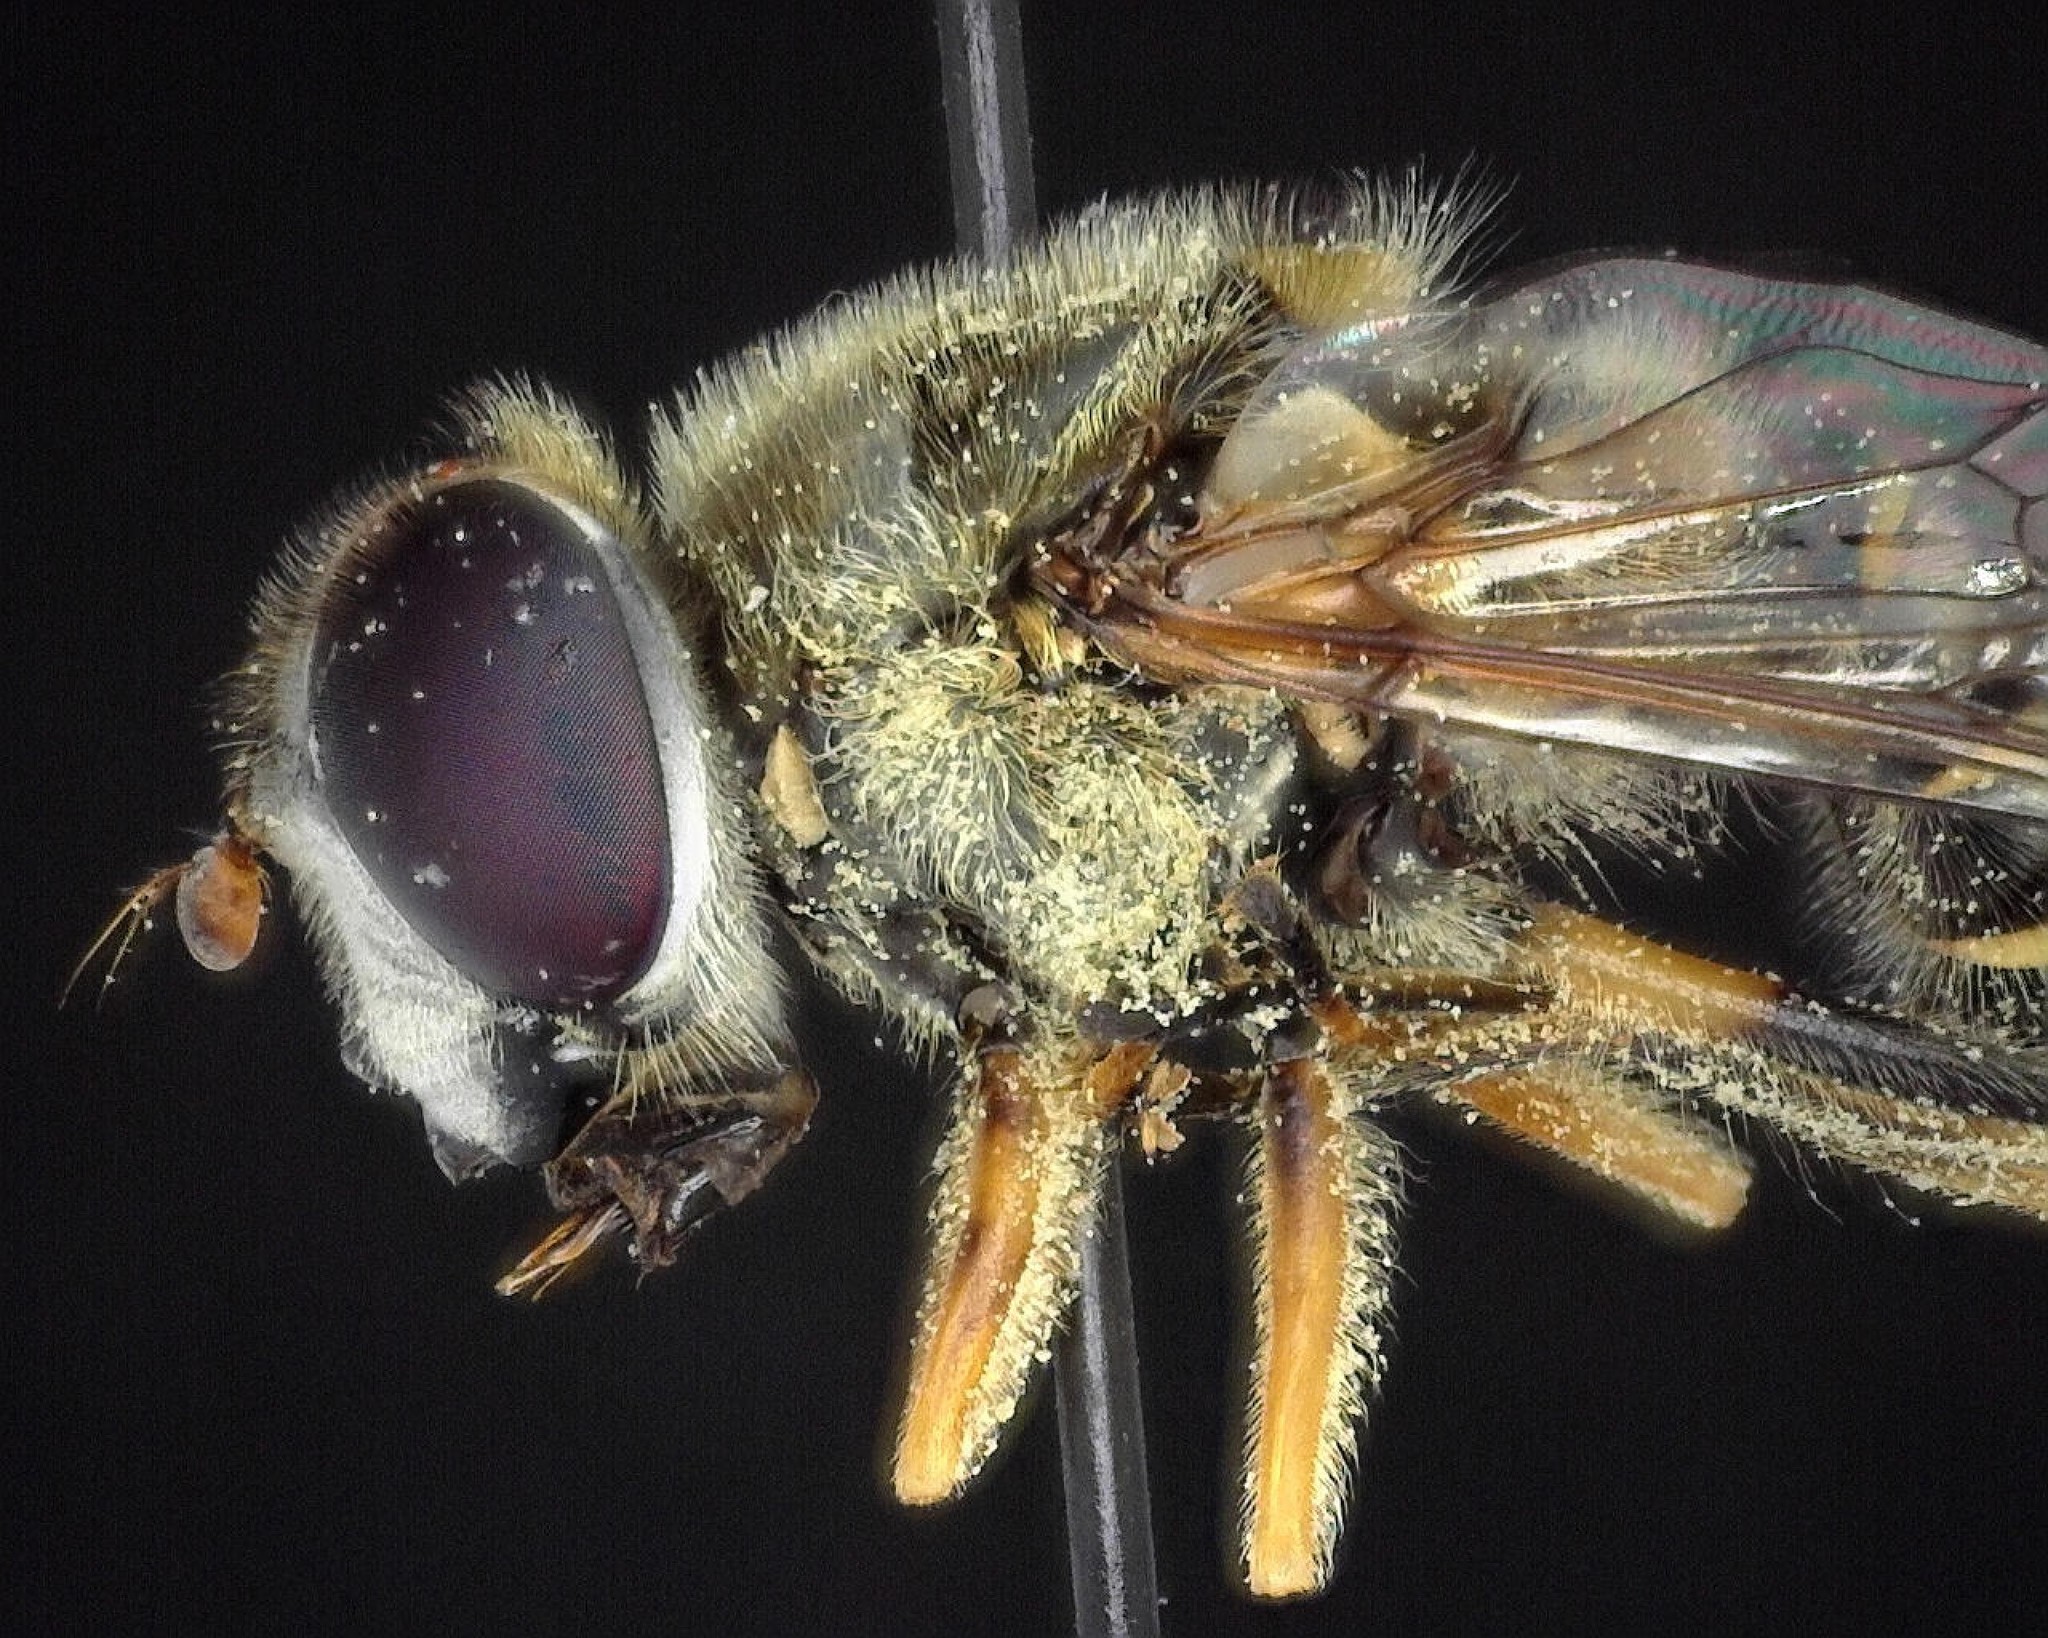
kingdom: Animalia
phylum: Arthropoda
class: Insecta
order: Diptera
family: Syrphidae
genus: Eristalis
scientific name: Eristalis transversa
